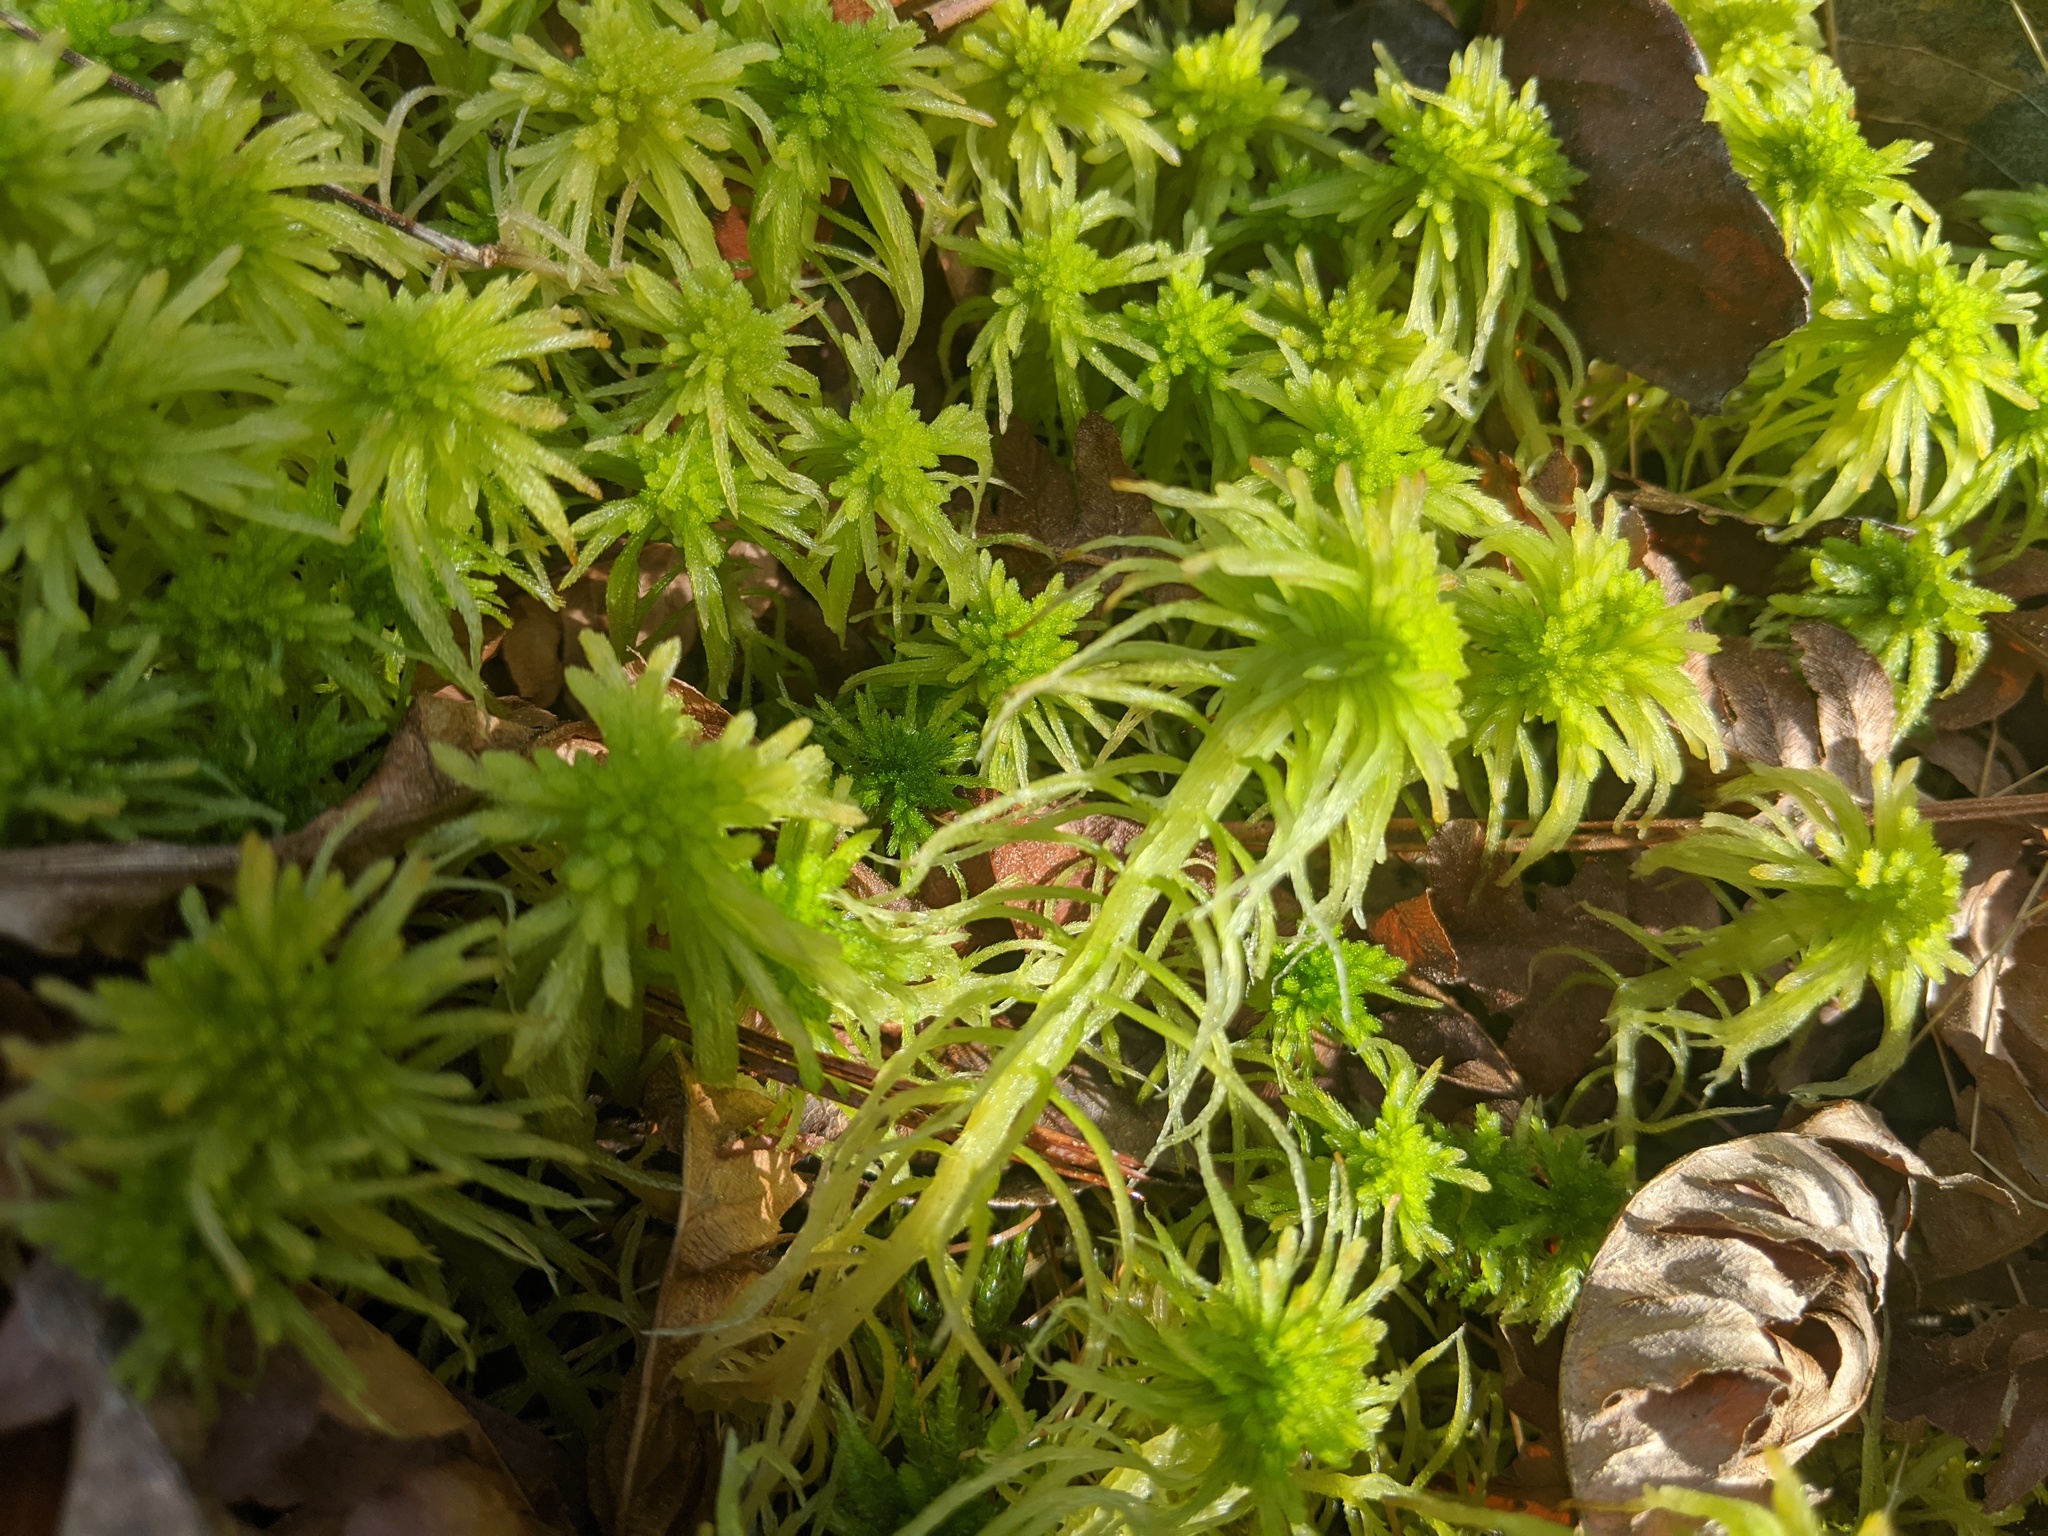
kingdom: Plantae
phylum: Bryophyta
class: Sphagnopsida
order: Sphagnales
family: Sphagnaceae
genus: Sphagnum
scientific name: Sphagnum
